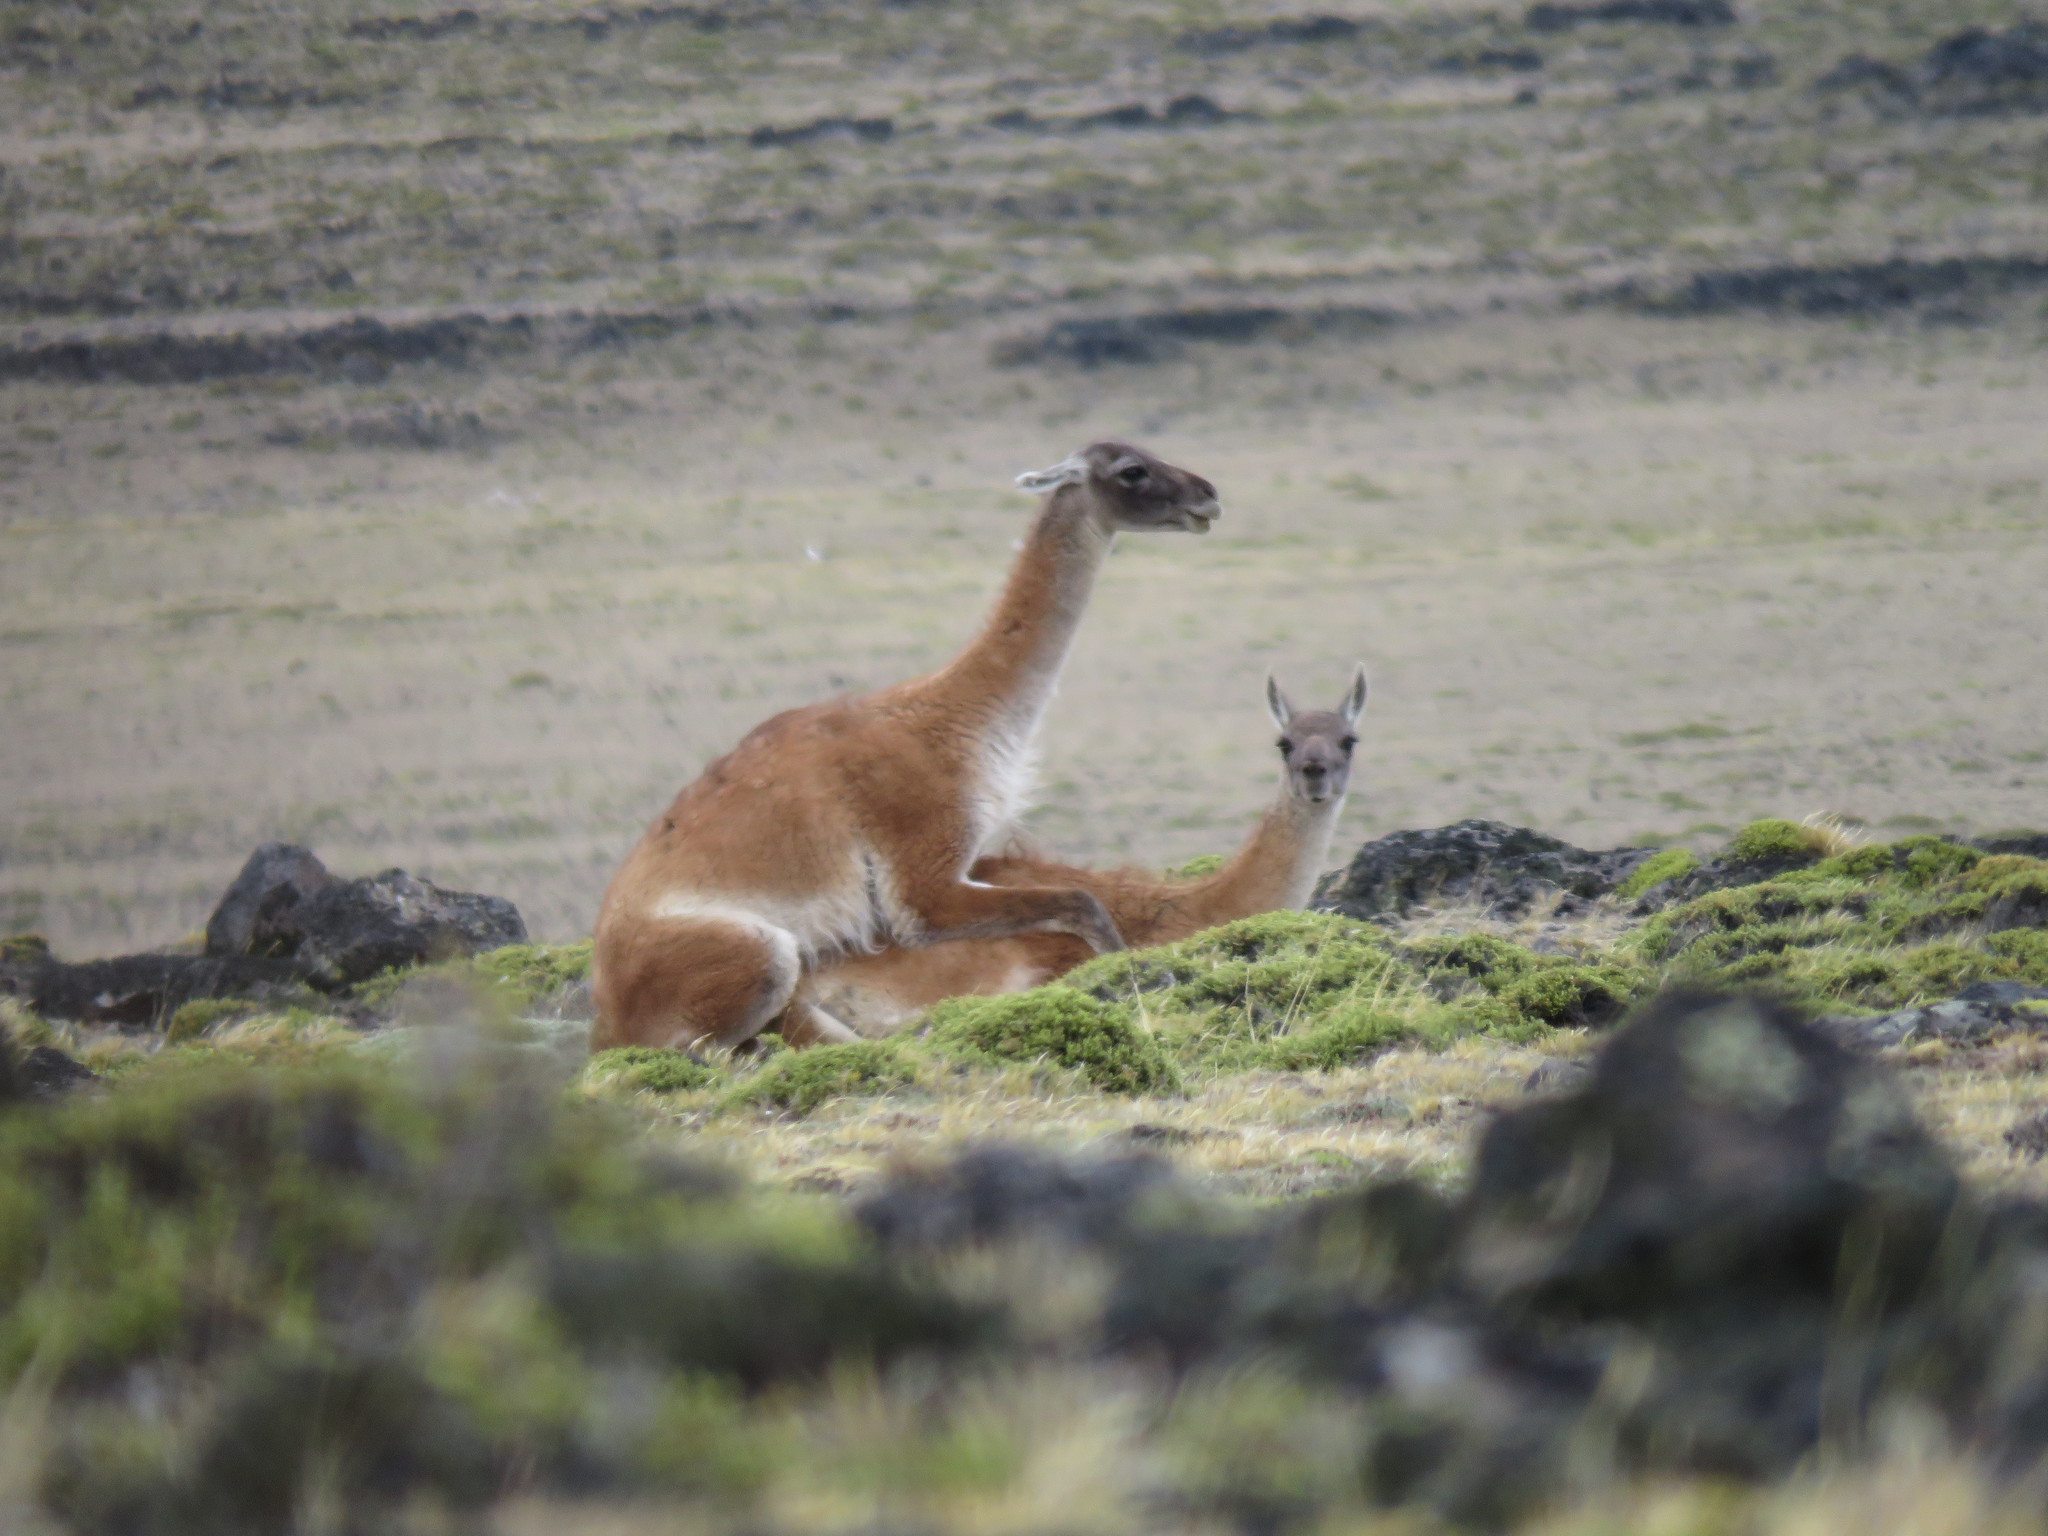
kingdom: Animalia
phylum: Chordata
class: Mammalia
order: Artiodactyla
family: Camelidae
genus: Lama
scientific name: Lama glama
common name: Llama
